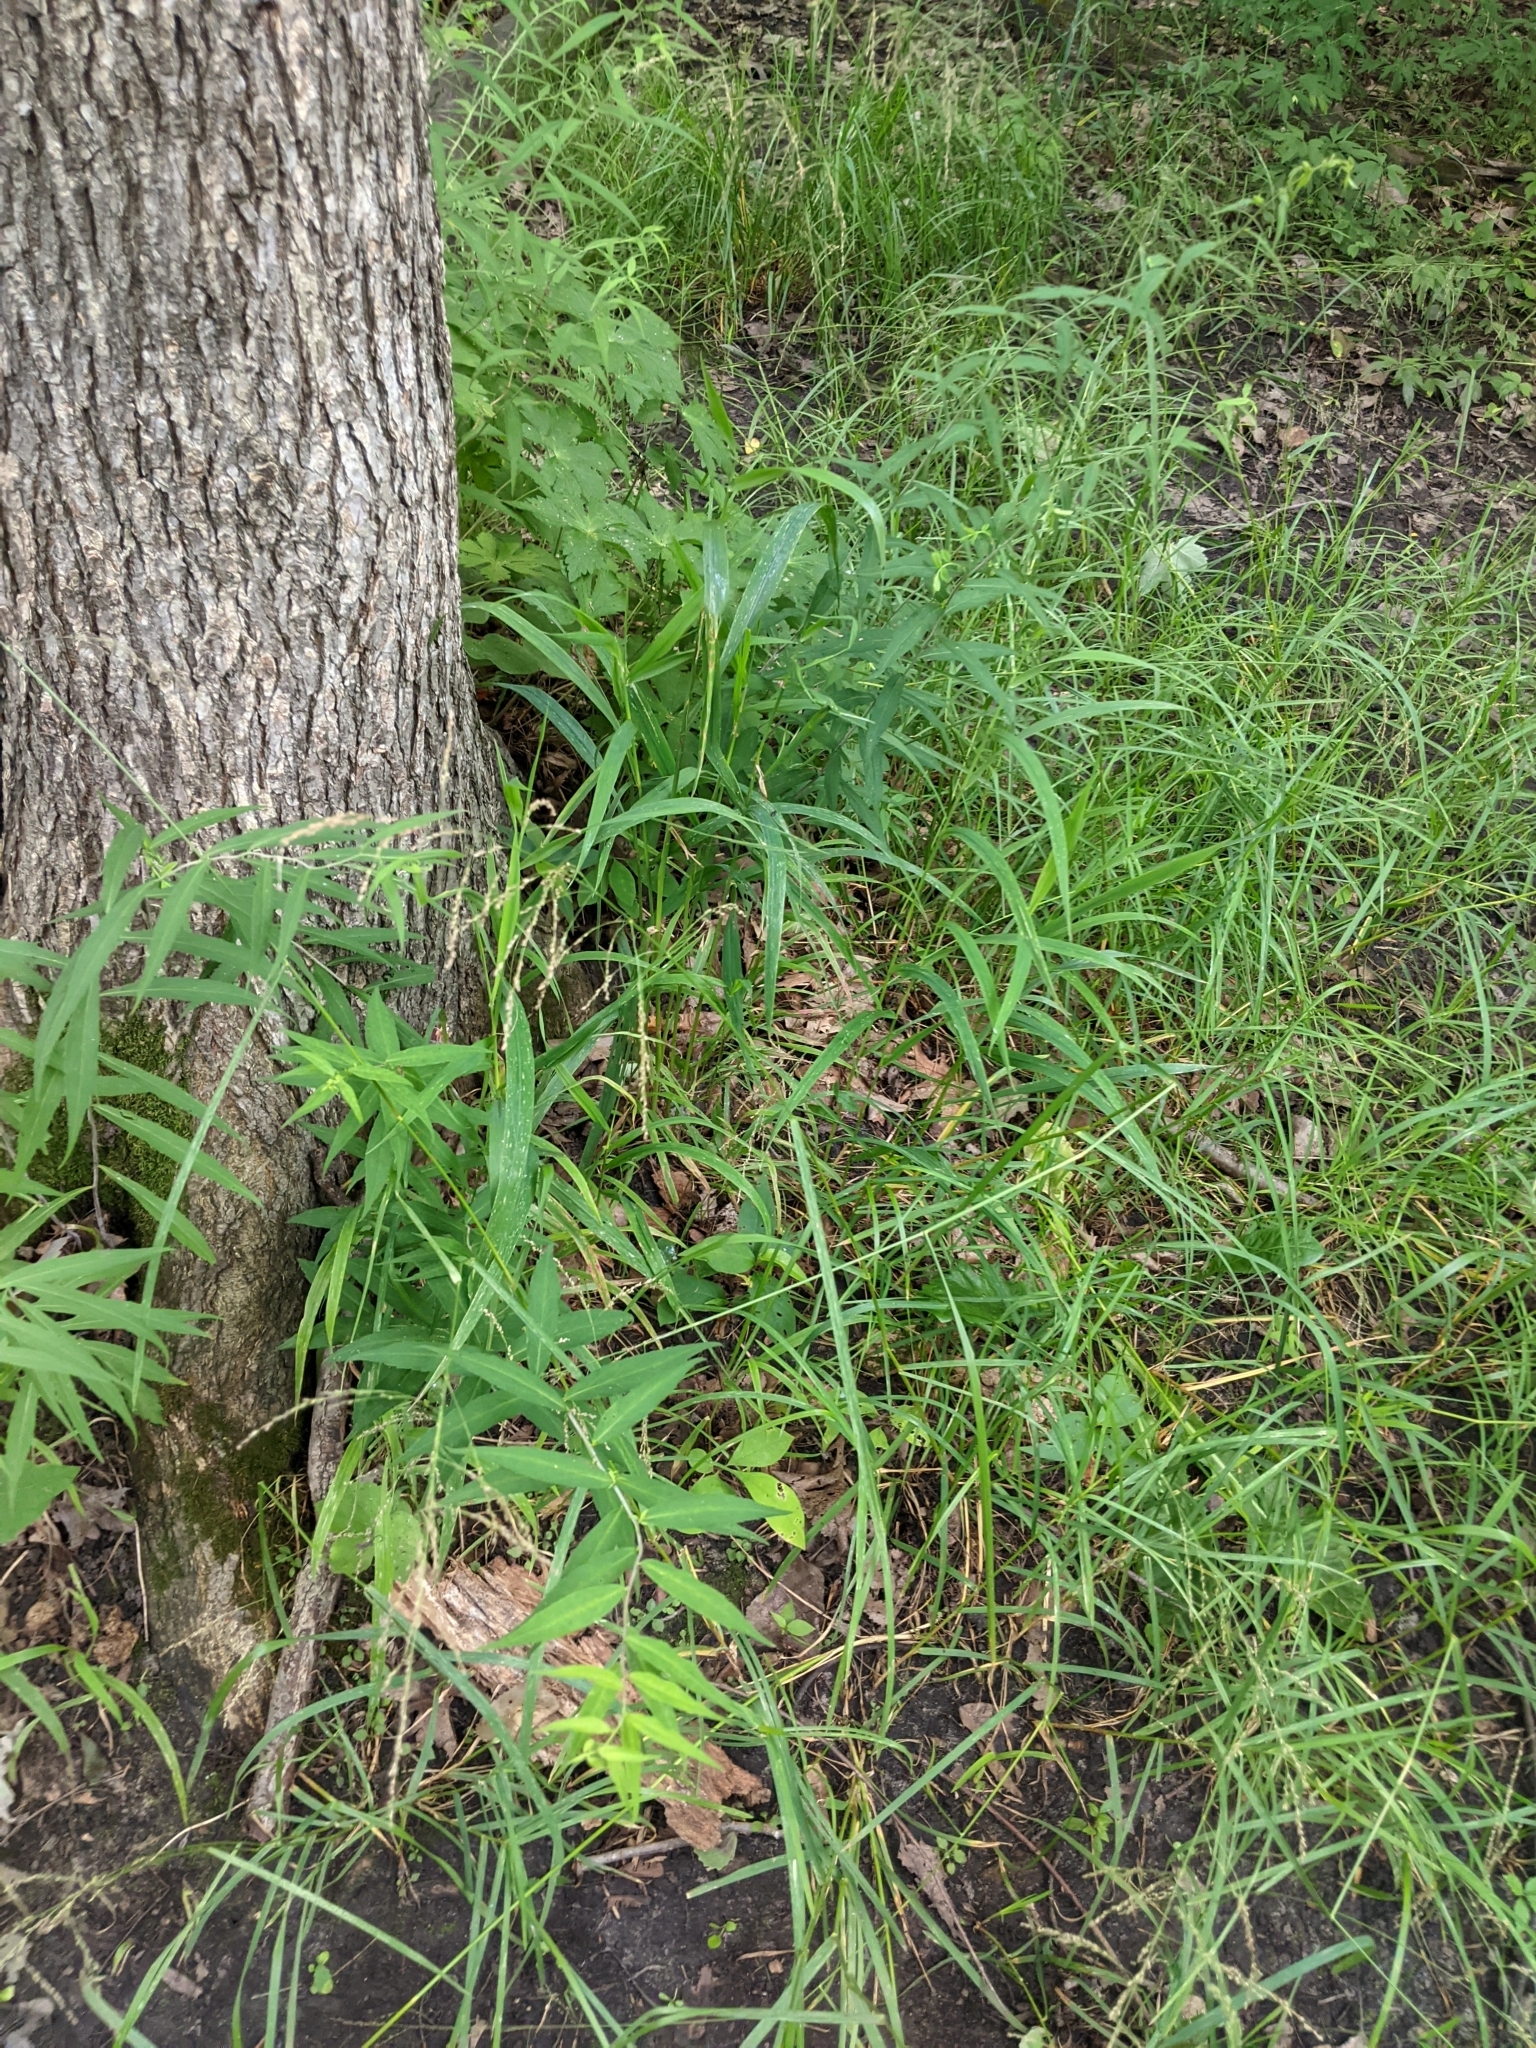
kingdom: Plantae
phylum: Tracheophyta
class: Liliopsida
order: Poales
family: Poaceae
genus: Glyceria
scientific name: Glyceria striata
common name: Fowl manna grass
